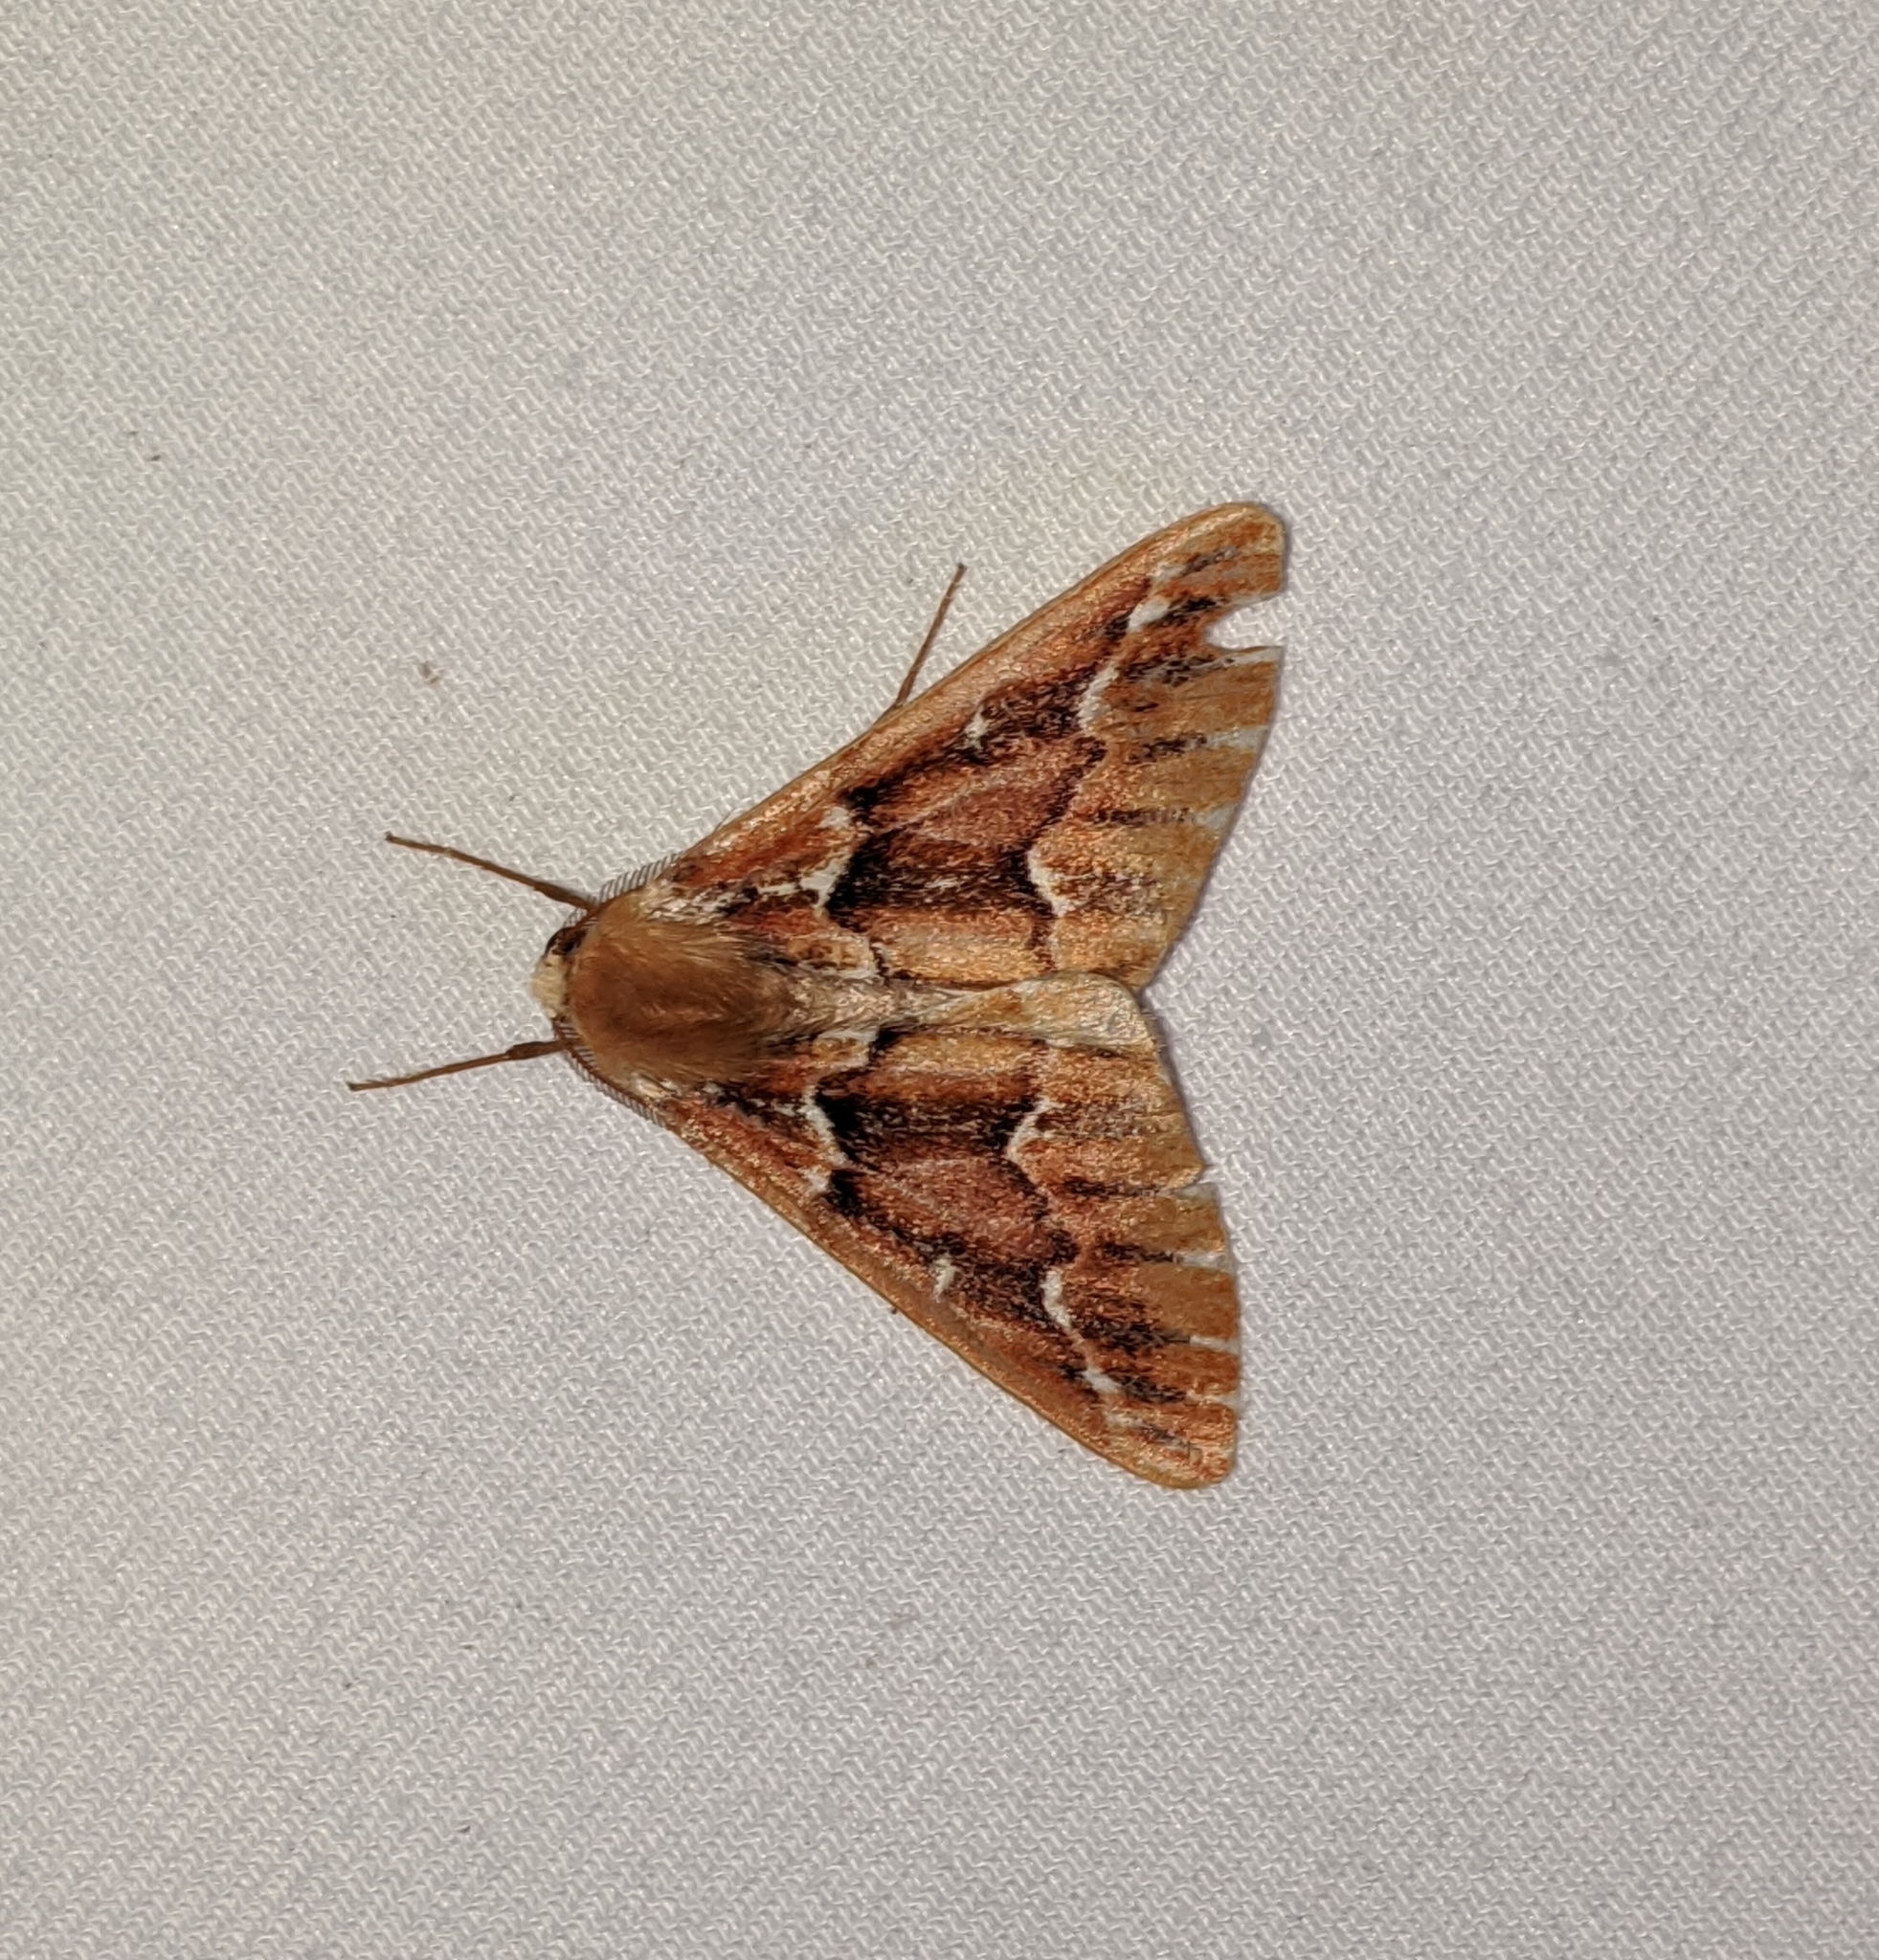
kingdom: Animalia
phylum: Arthropoda
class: Insecta
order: Lepidoptera
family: Geometridae
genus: Caripeta
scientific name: Caripeta aequaliaria
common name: Red girdle moth
